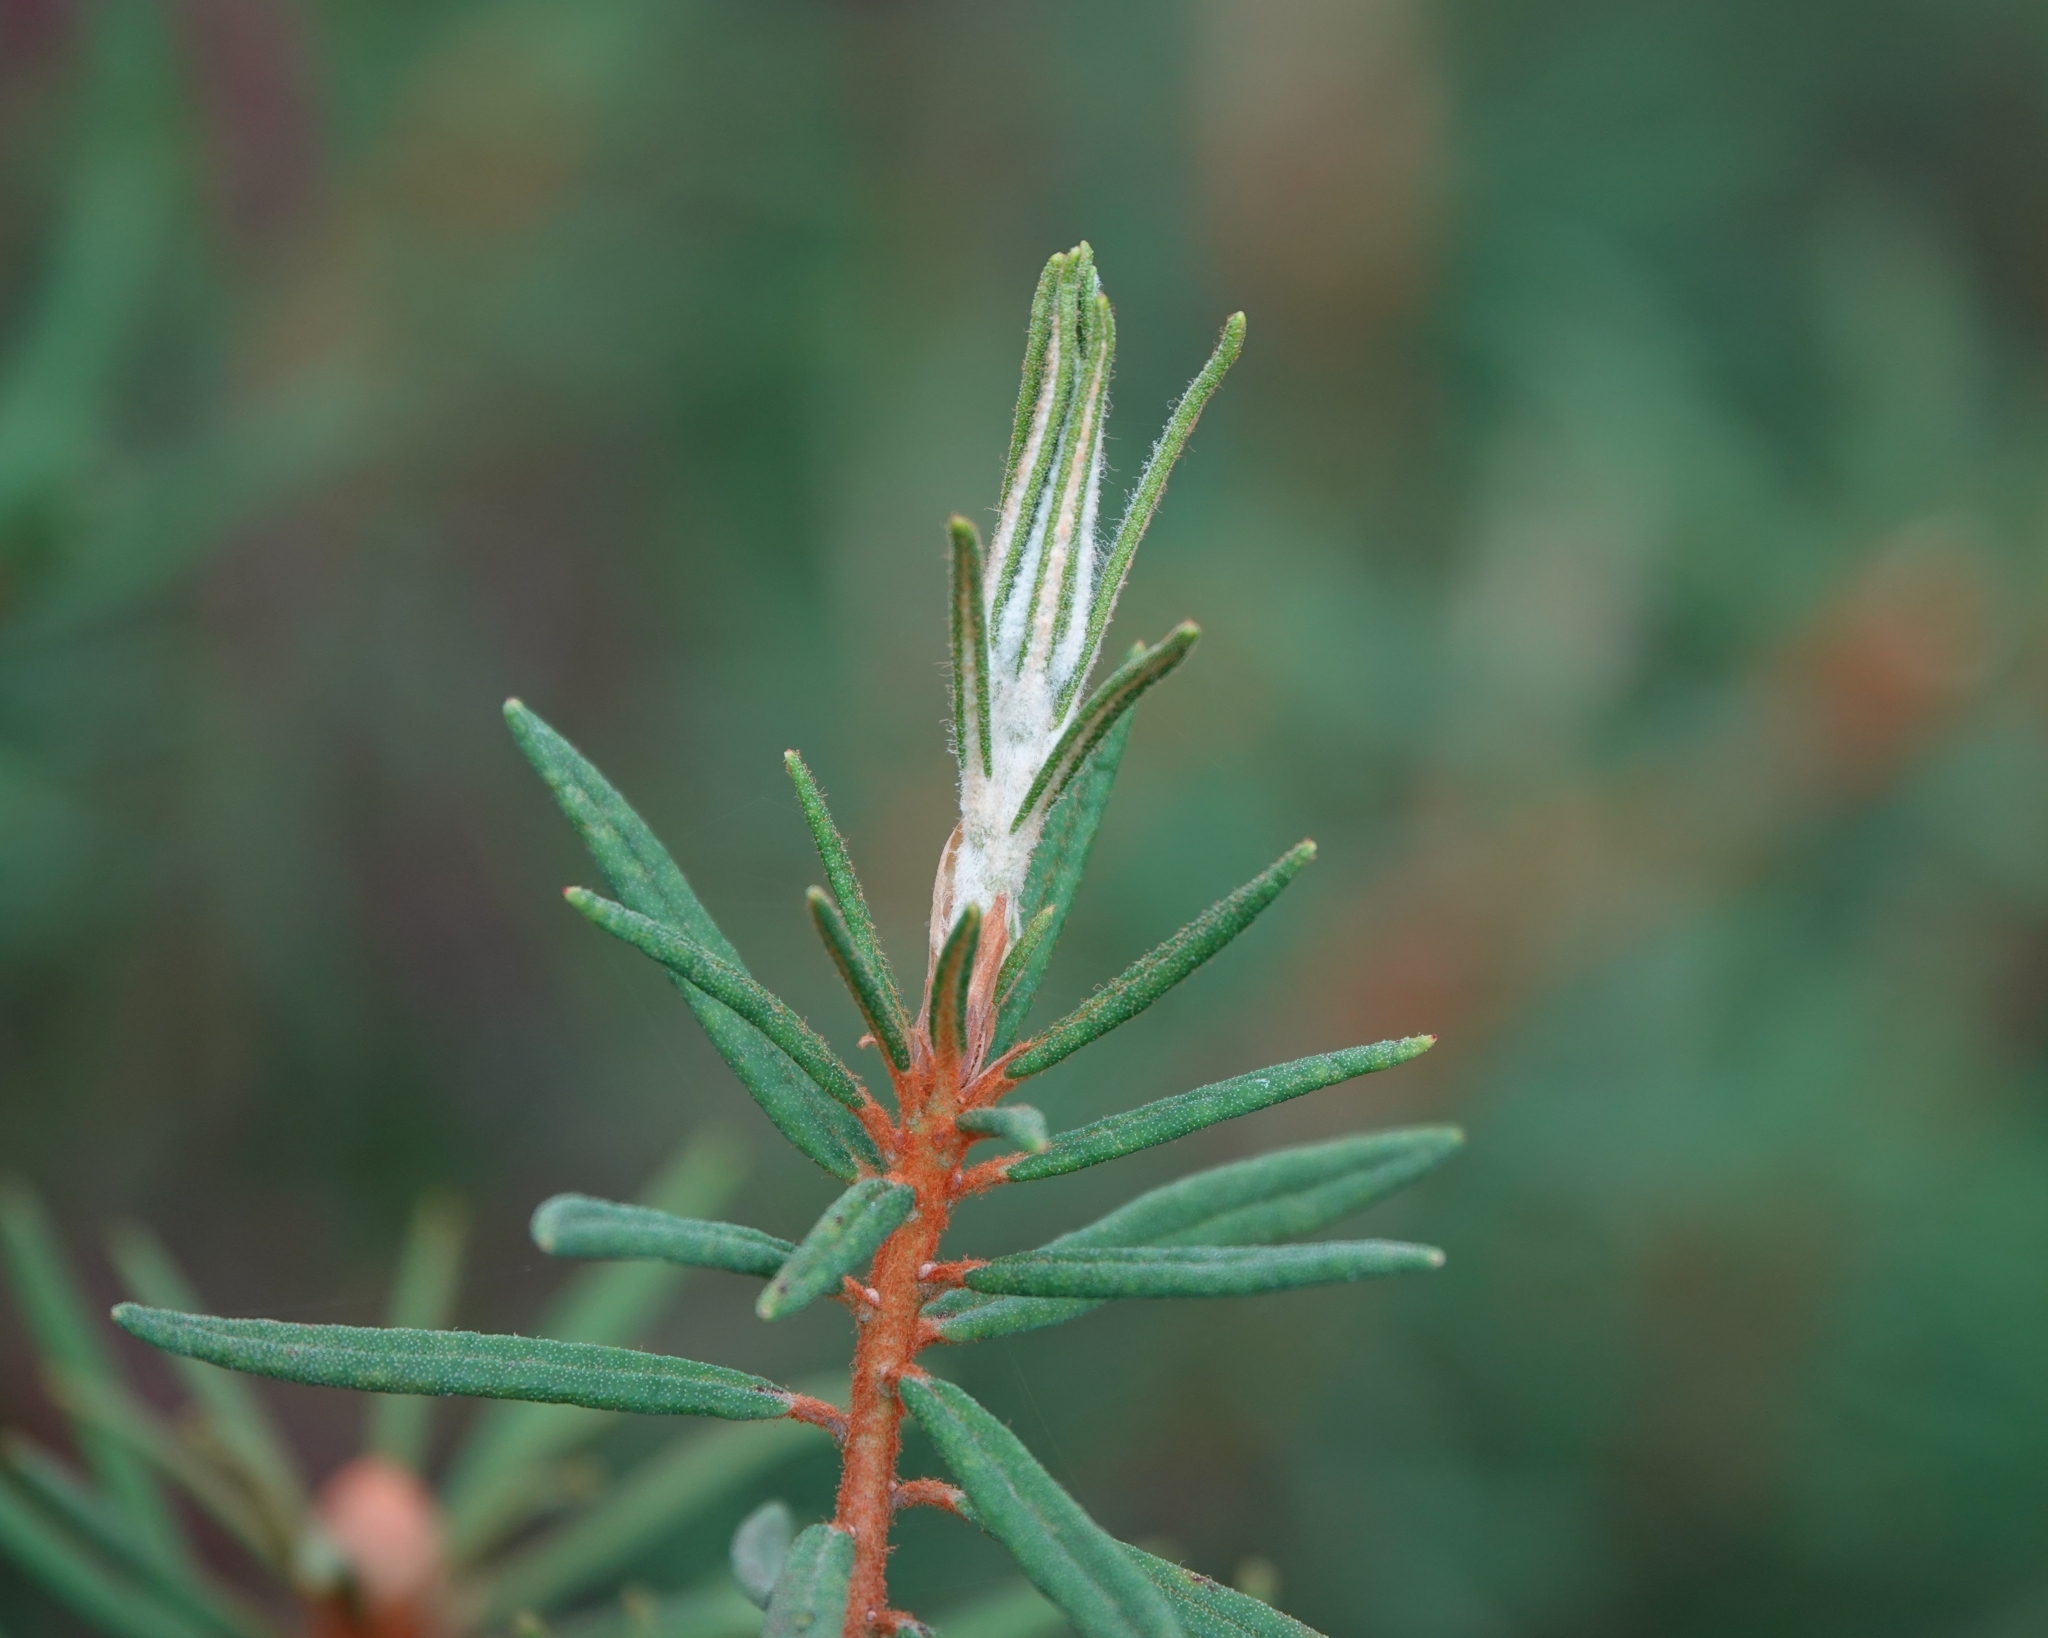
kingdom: Plantae
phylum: Tracheophyta
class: Magnoliopsida
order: Ericales
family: Ericaceae
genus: Rhododendron
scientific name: Rhododendron tomentosum
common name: Marsh labrador tea
